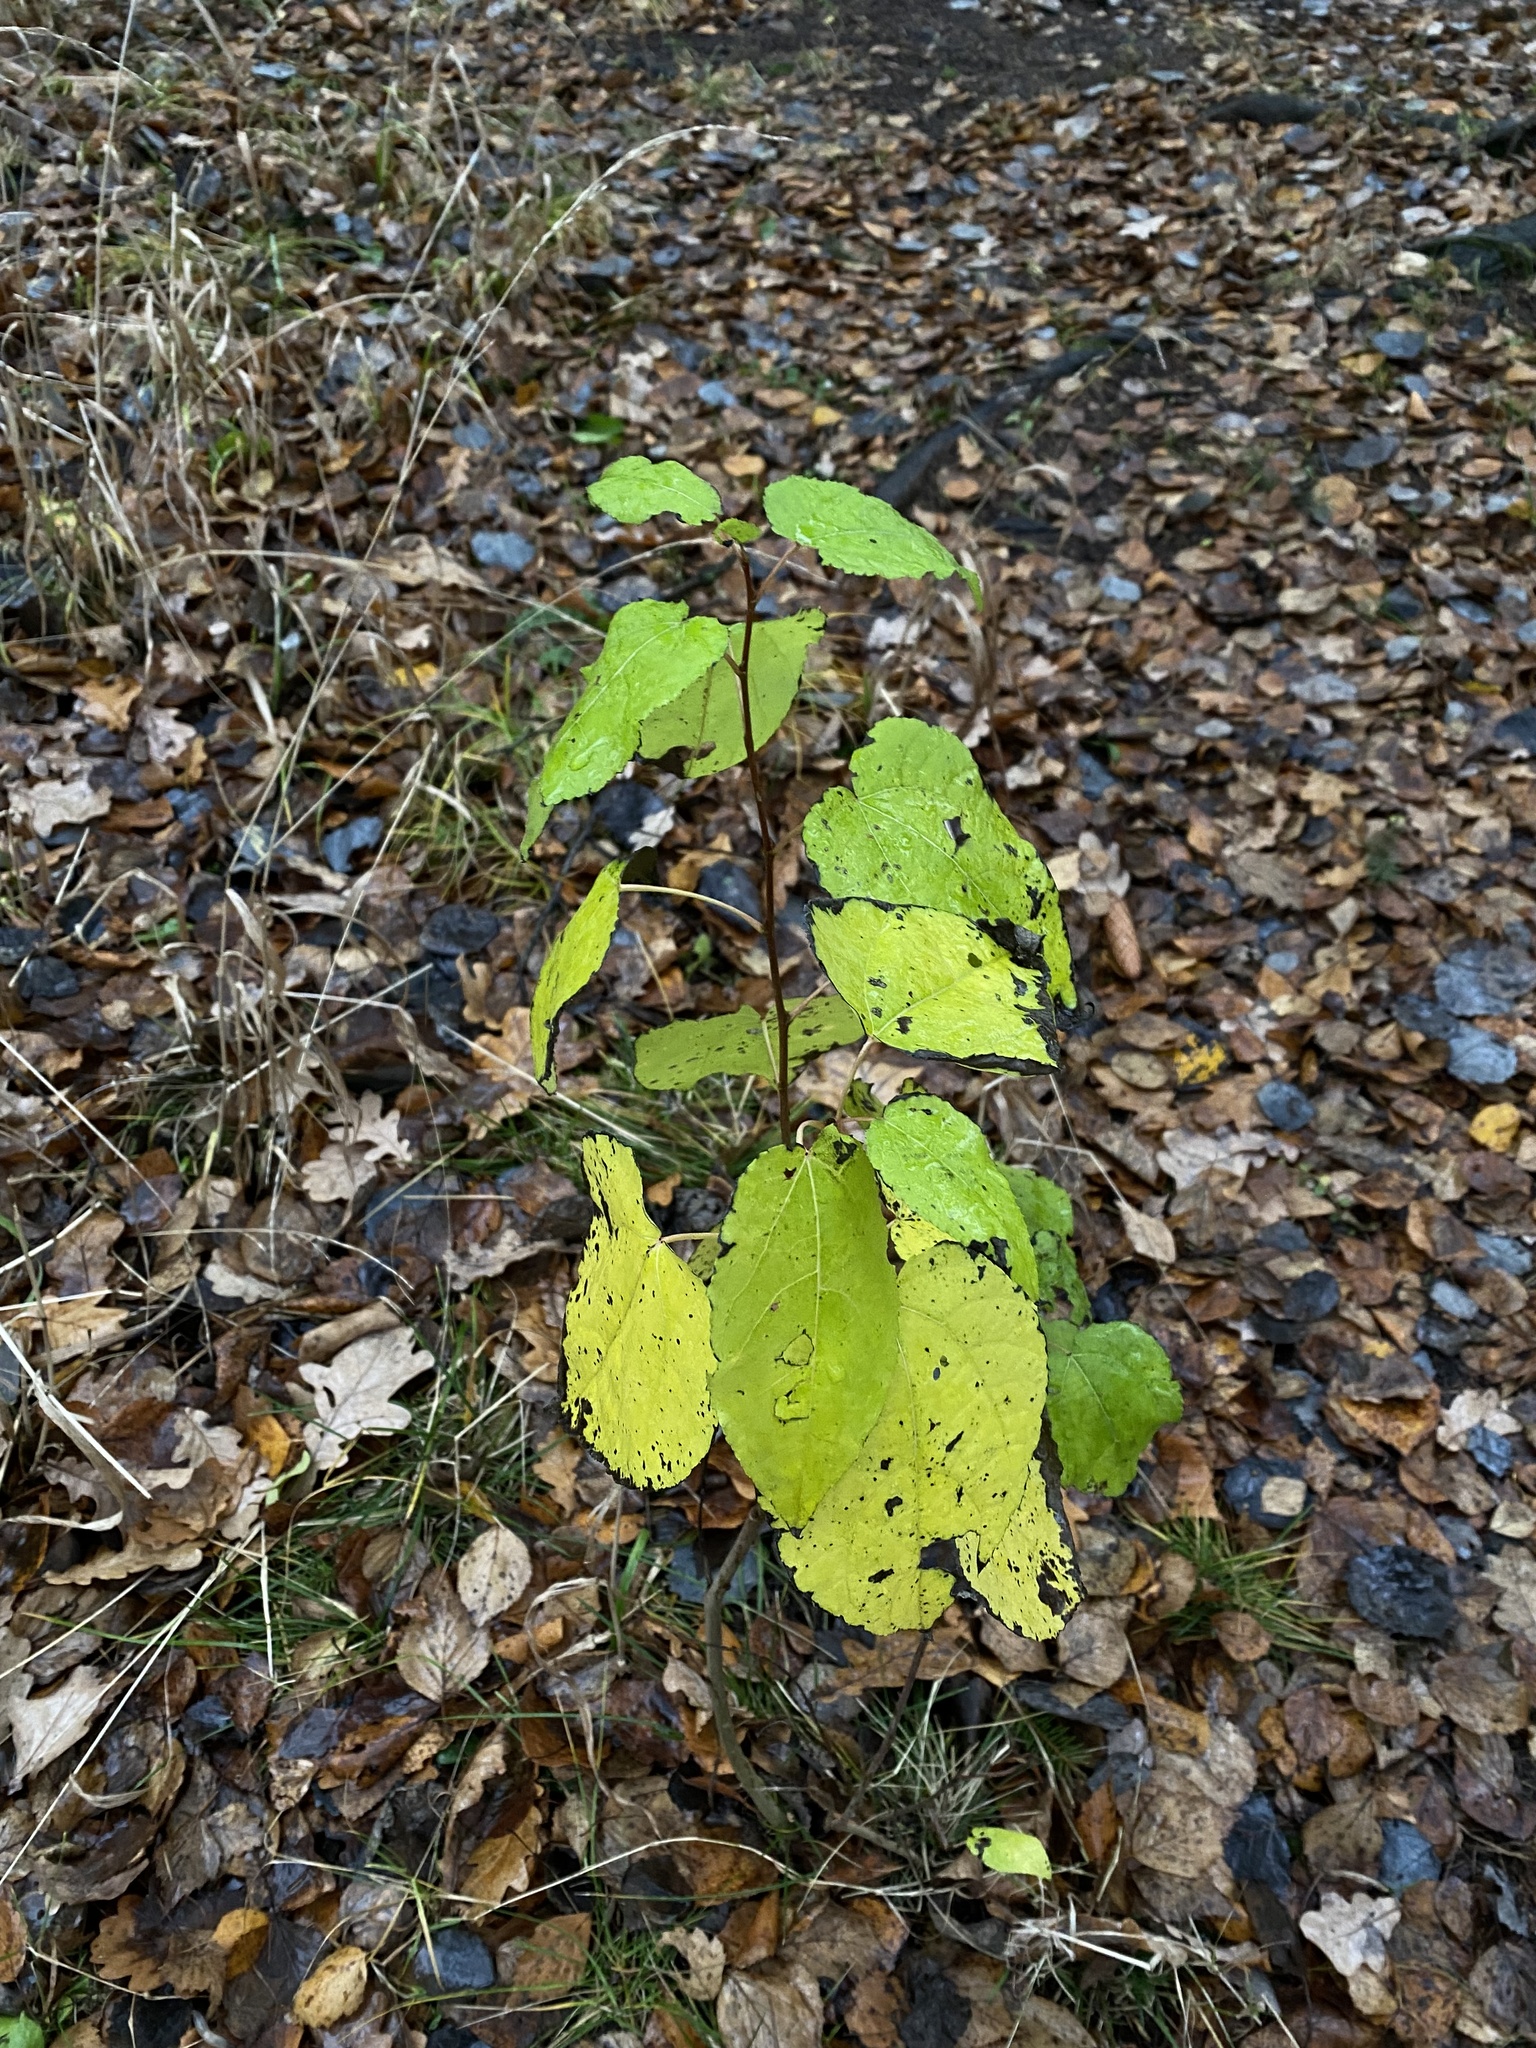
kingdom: Plantae
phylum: Tracheophyta
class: Magnoliopsida
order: Malpighiales
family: Salicaceae
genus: Populus
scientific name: Populus tremula
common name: European aspen
